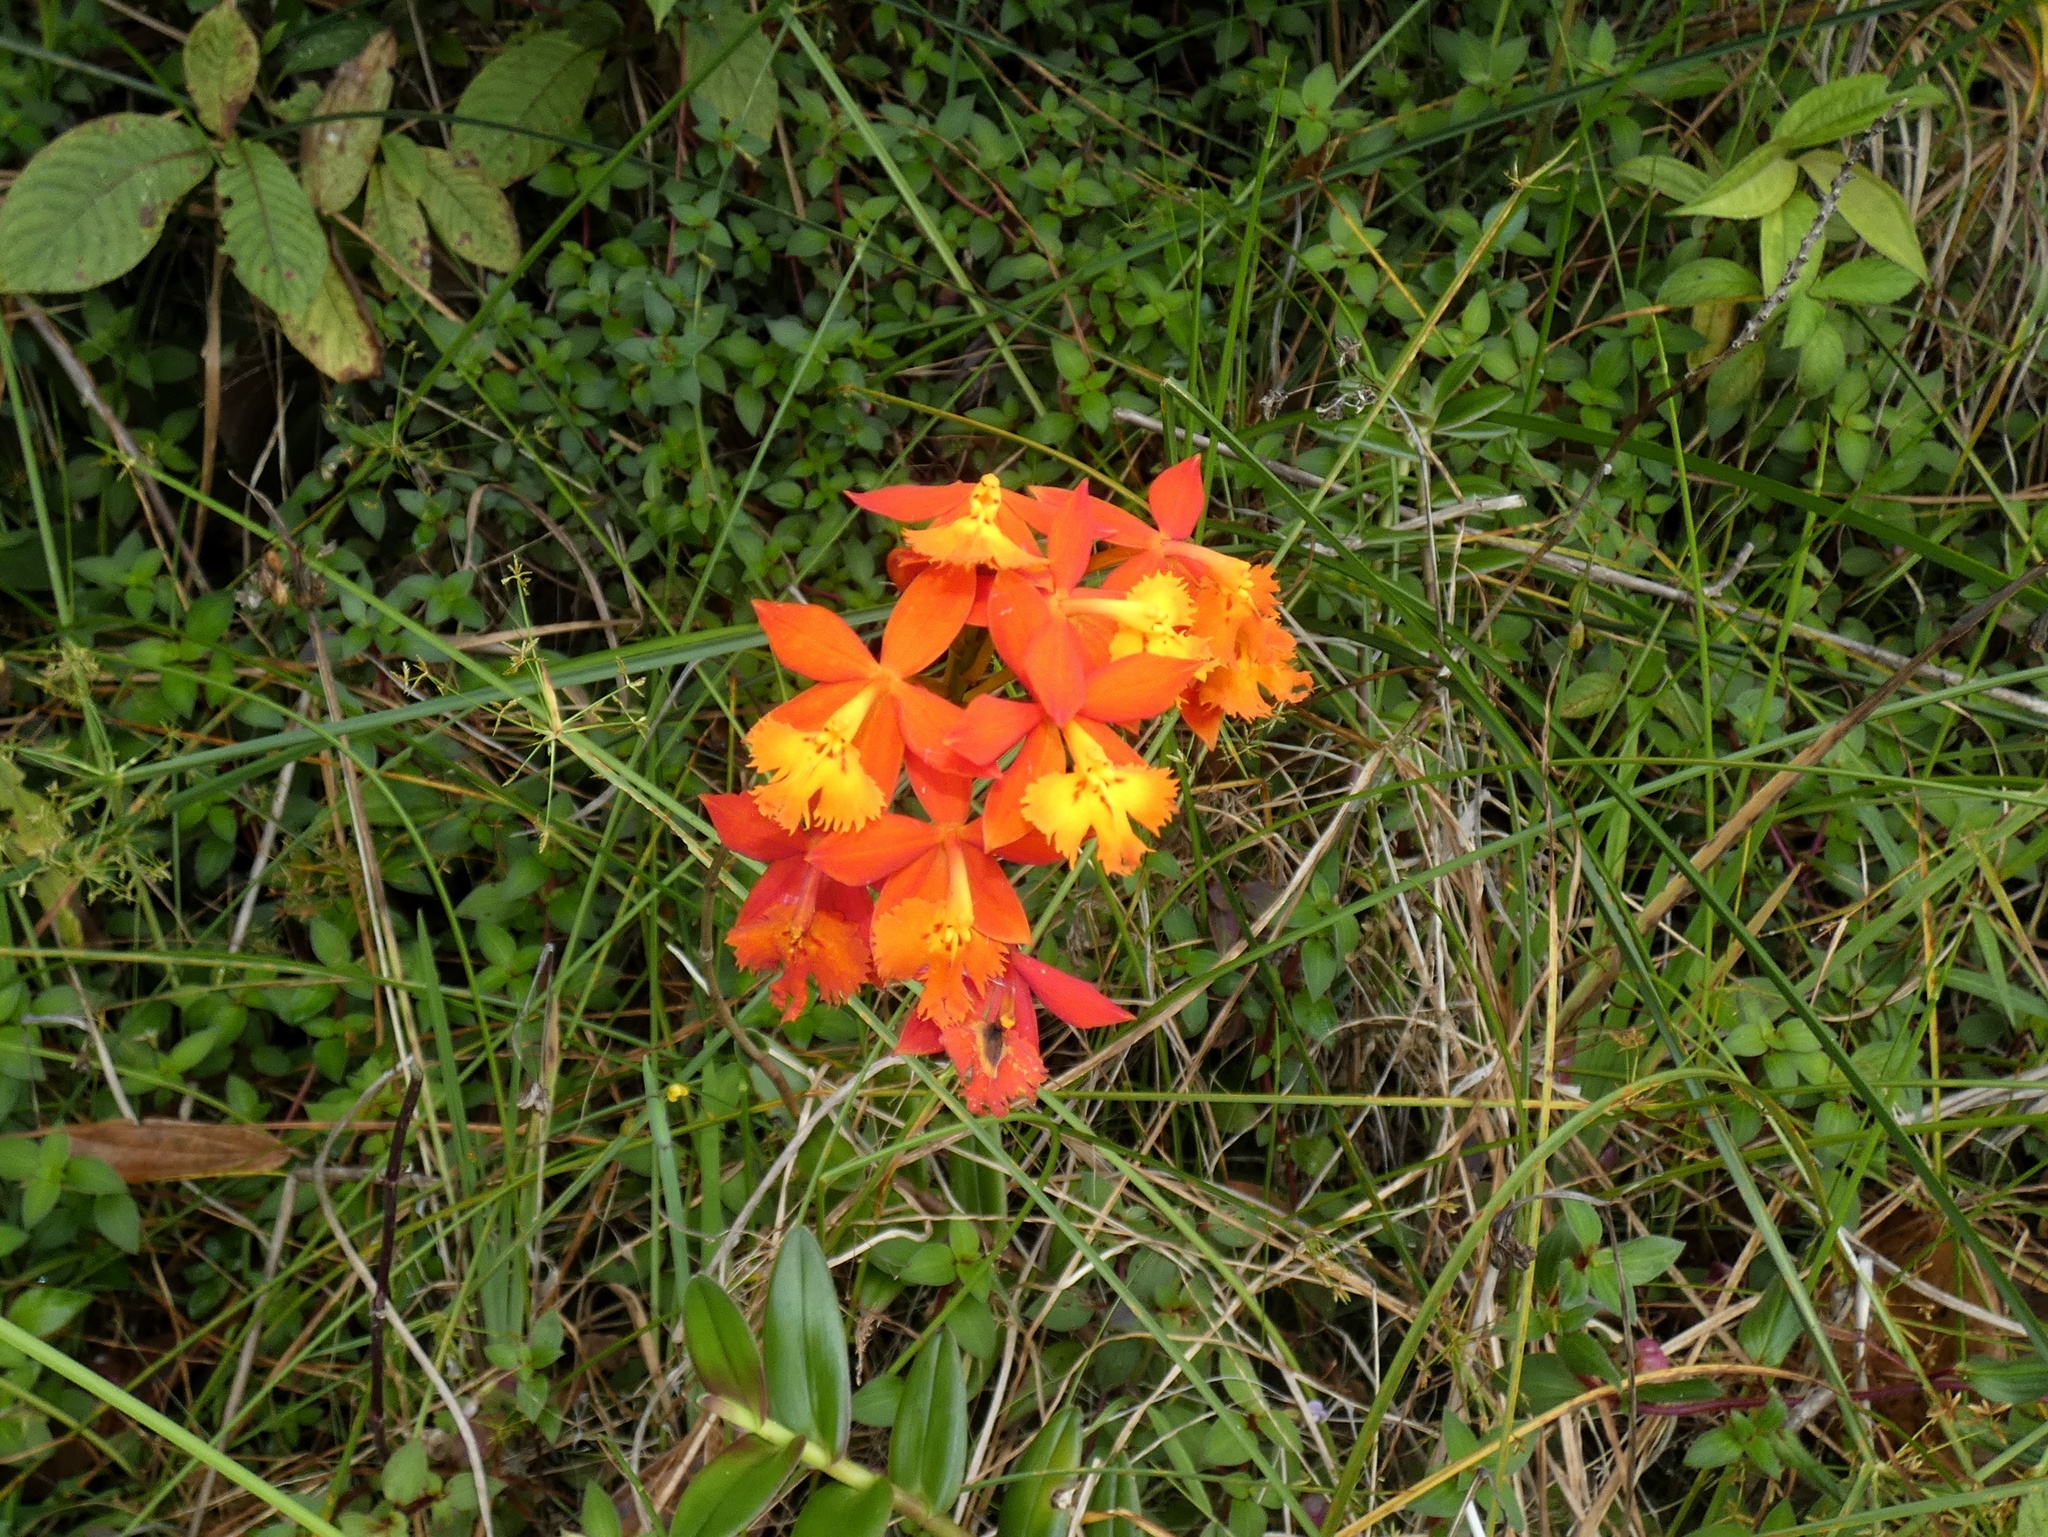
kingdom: Plantae
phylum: Tracheophyta
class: Liliopsida
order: Asparagales
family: Orchidaceae
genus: Epidendrum
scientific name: Epidendrum radicans
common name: Fire star orchid
